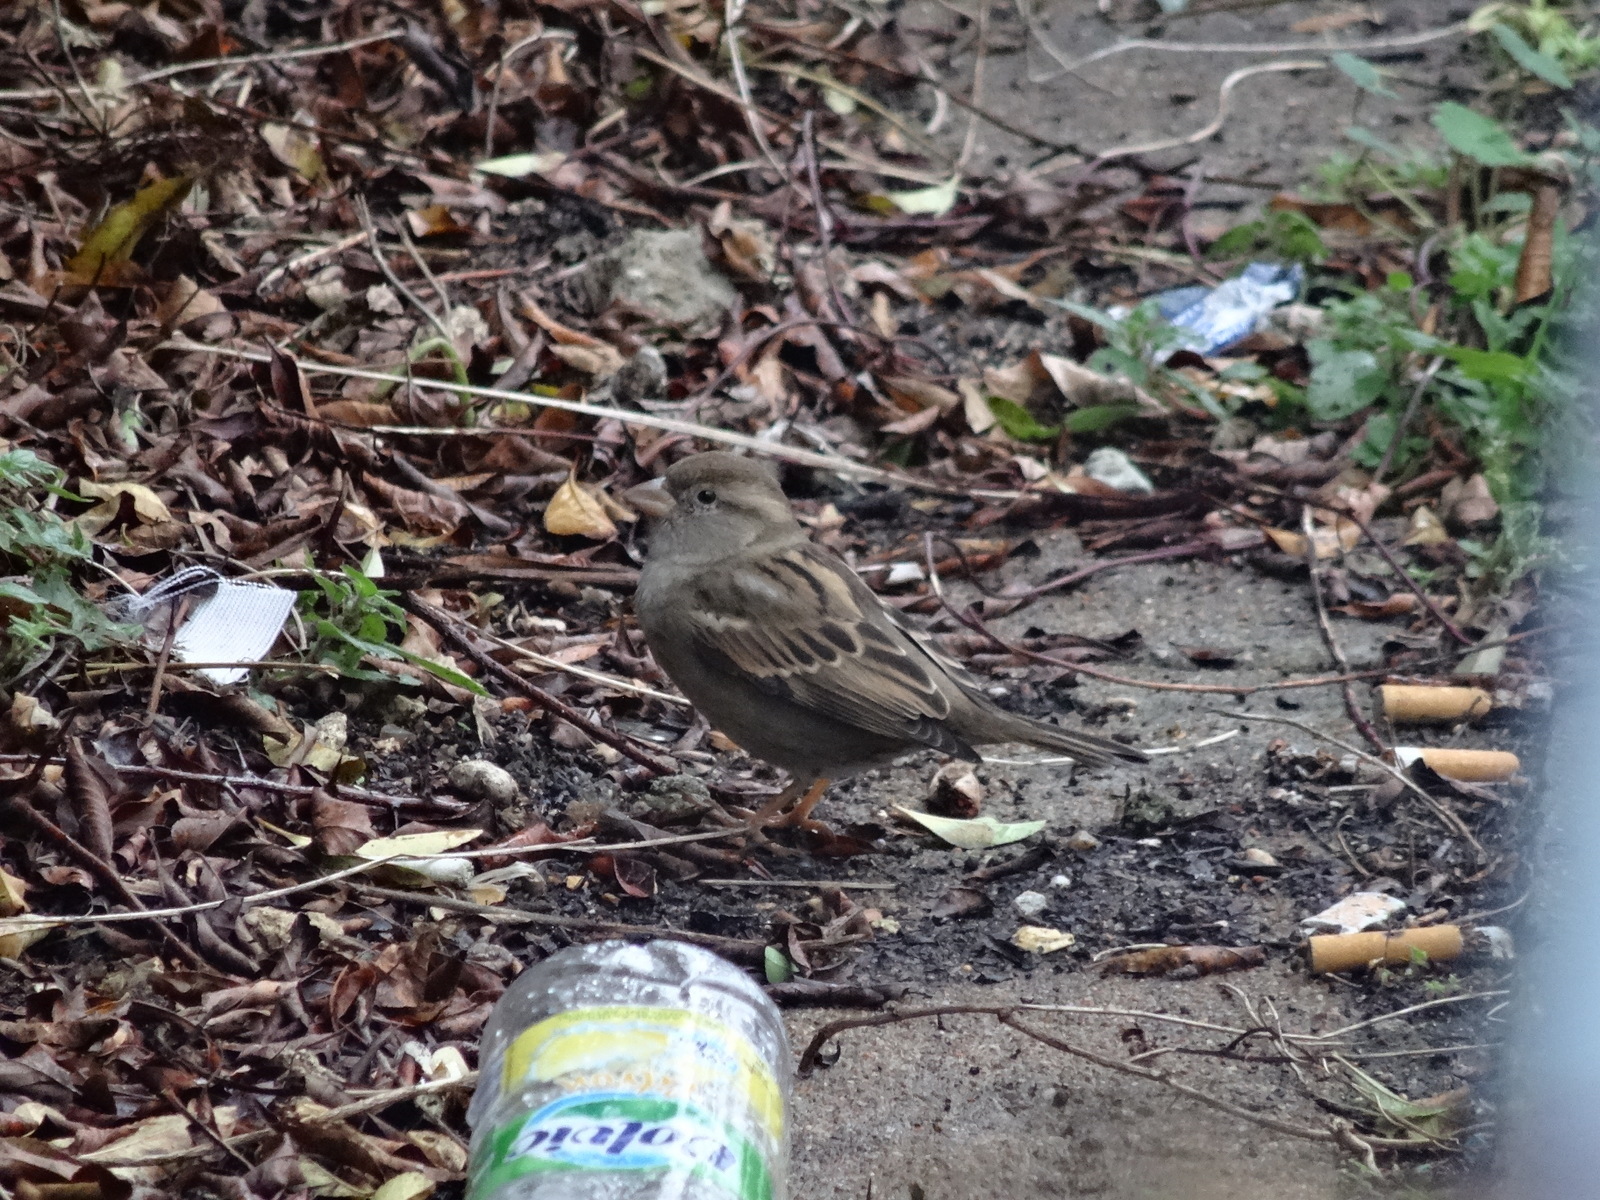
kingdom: Animalia
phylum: Chordata
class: Aves
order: Passeriformes
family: Passeridae
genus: Passer
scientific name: Passer domesticus
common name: House sparrow
